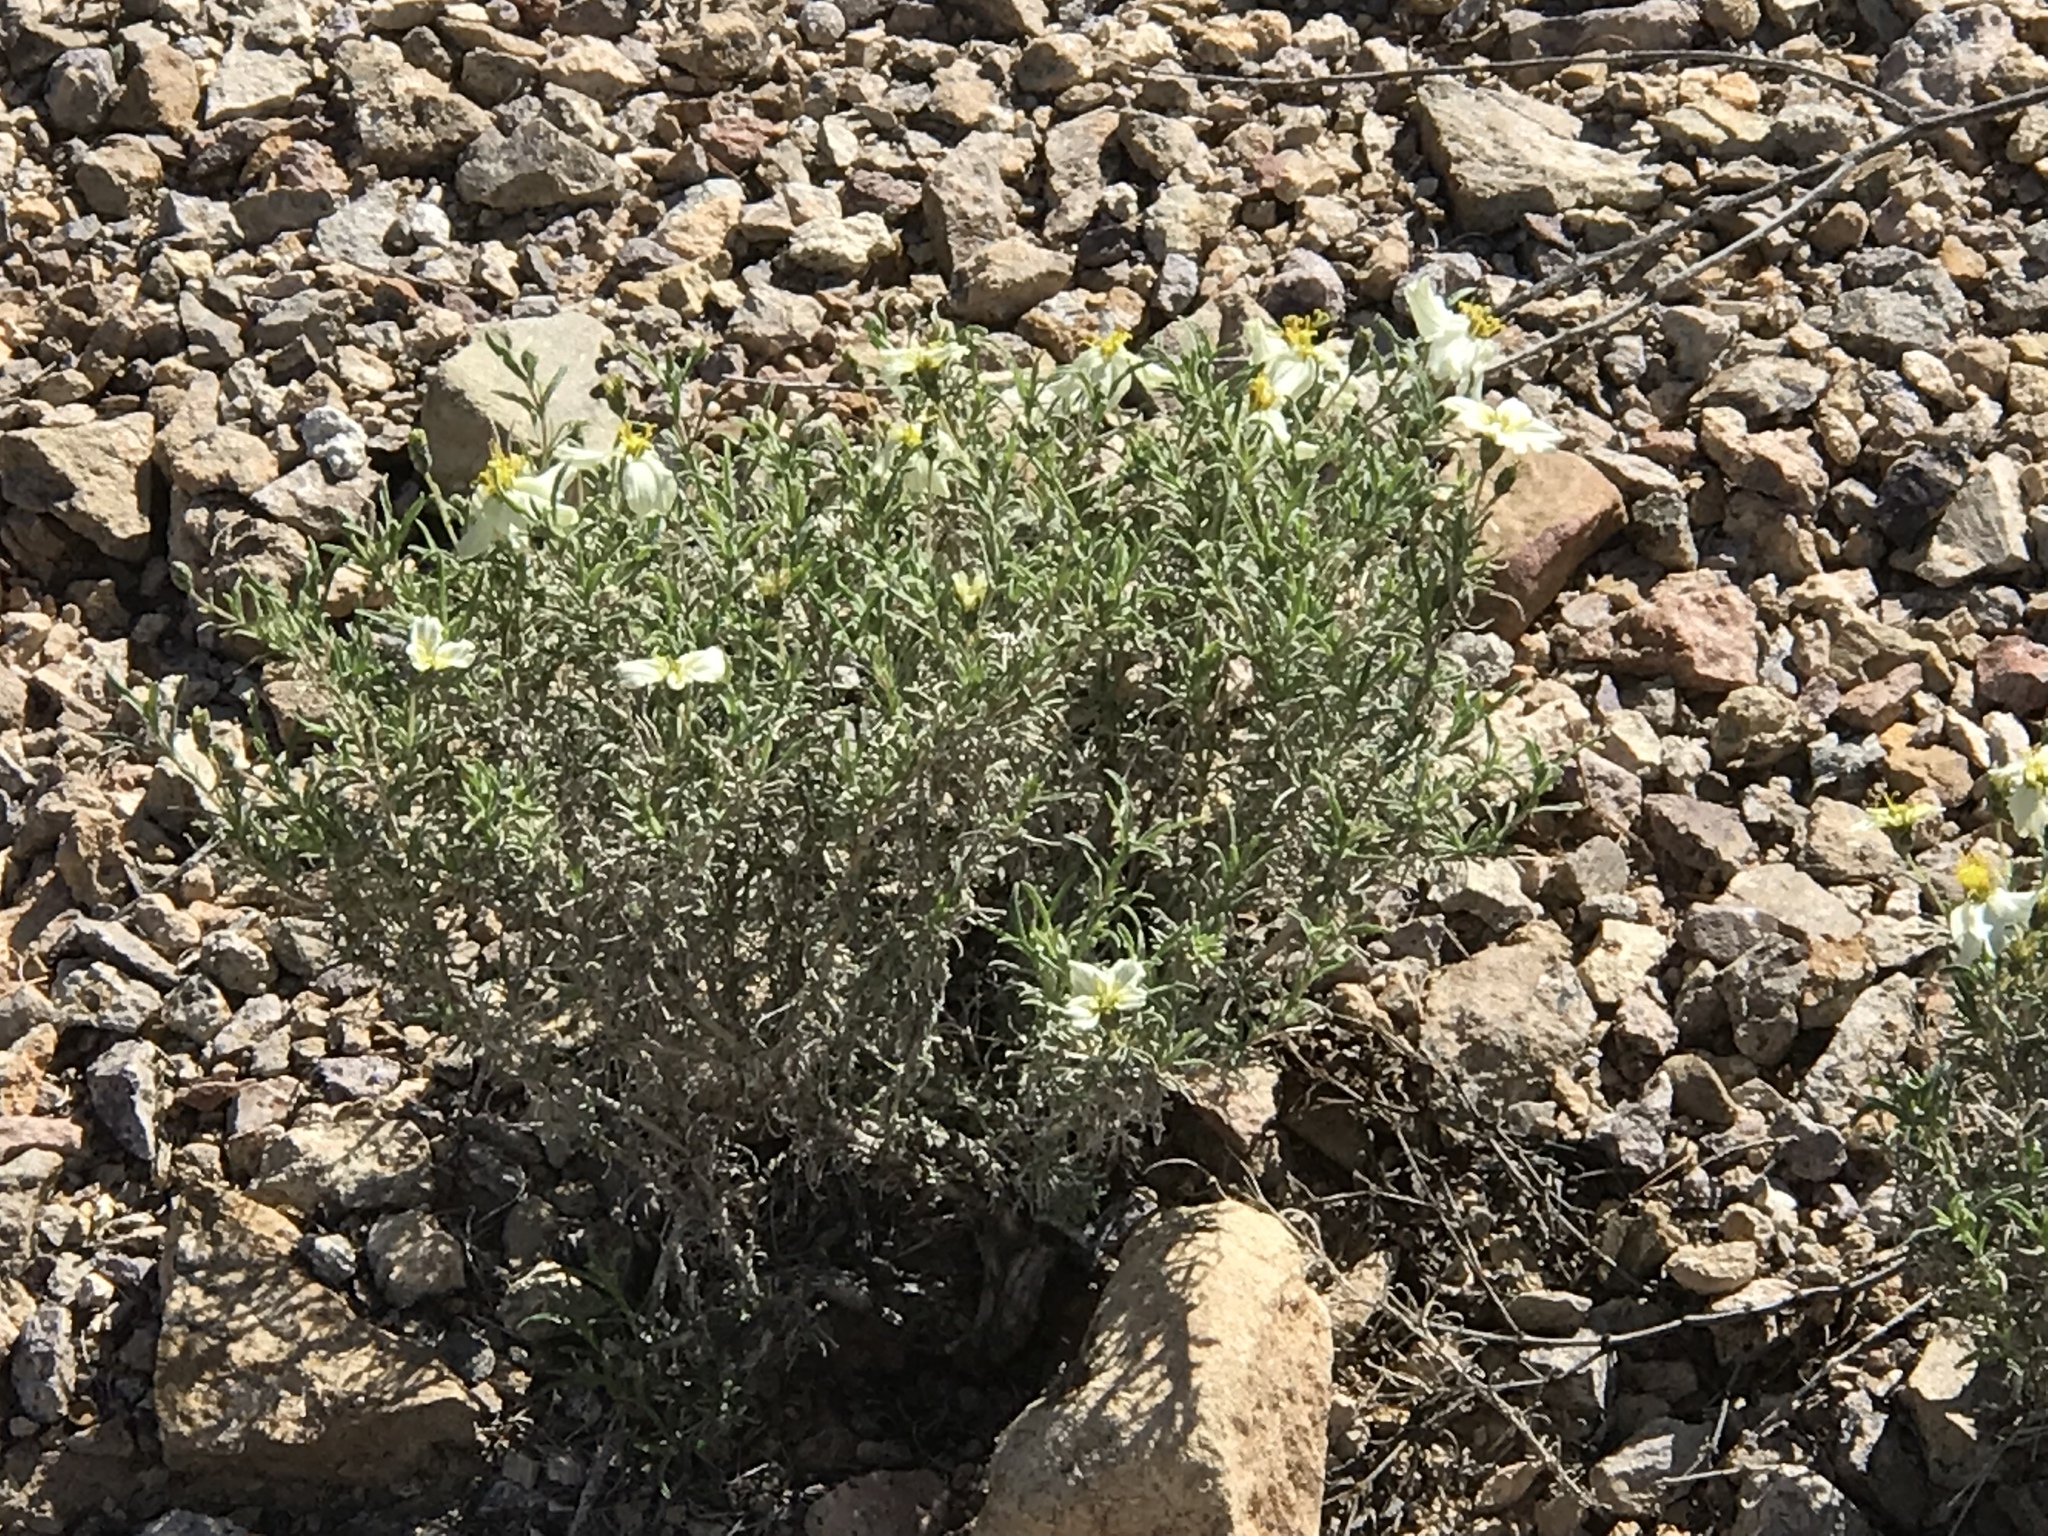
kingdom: Plantae
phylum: Tracheophyta
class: Magnoliopsida
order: Asterales
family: Asteraceae
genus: Zinnia
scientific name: Zinnia acerosa
